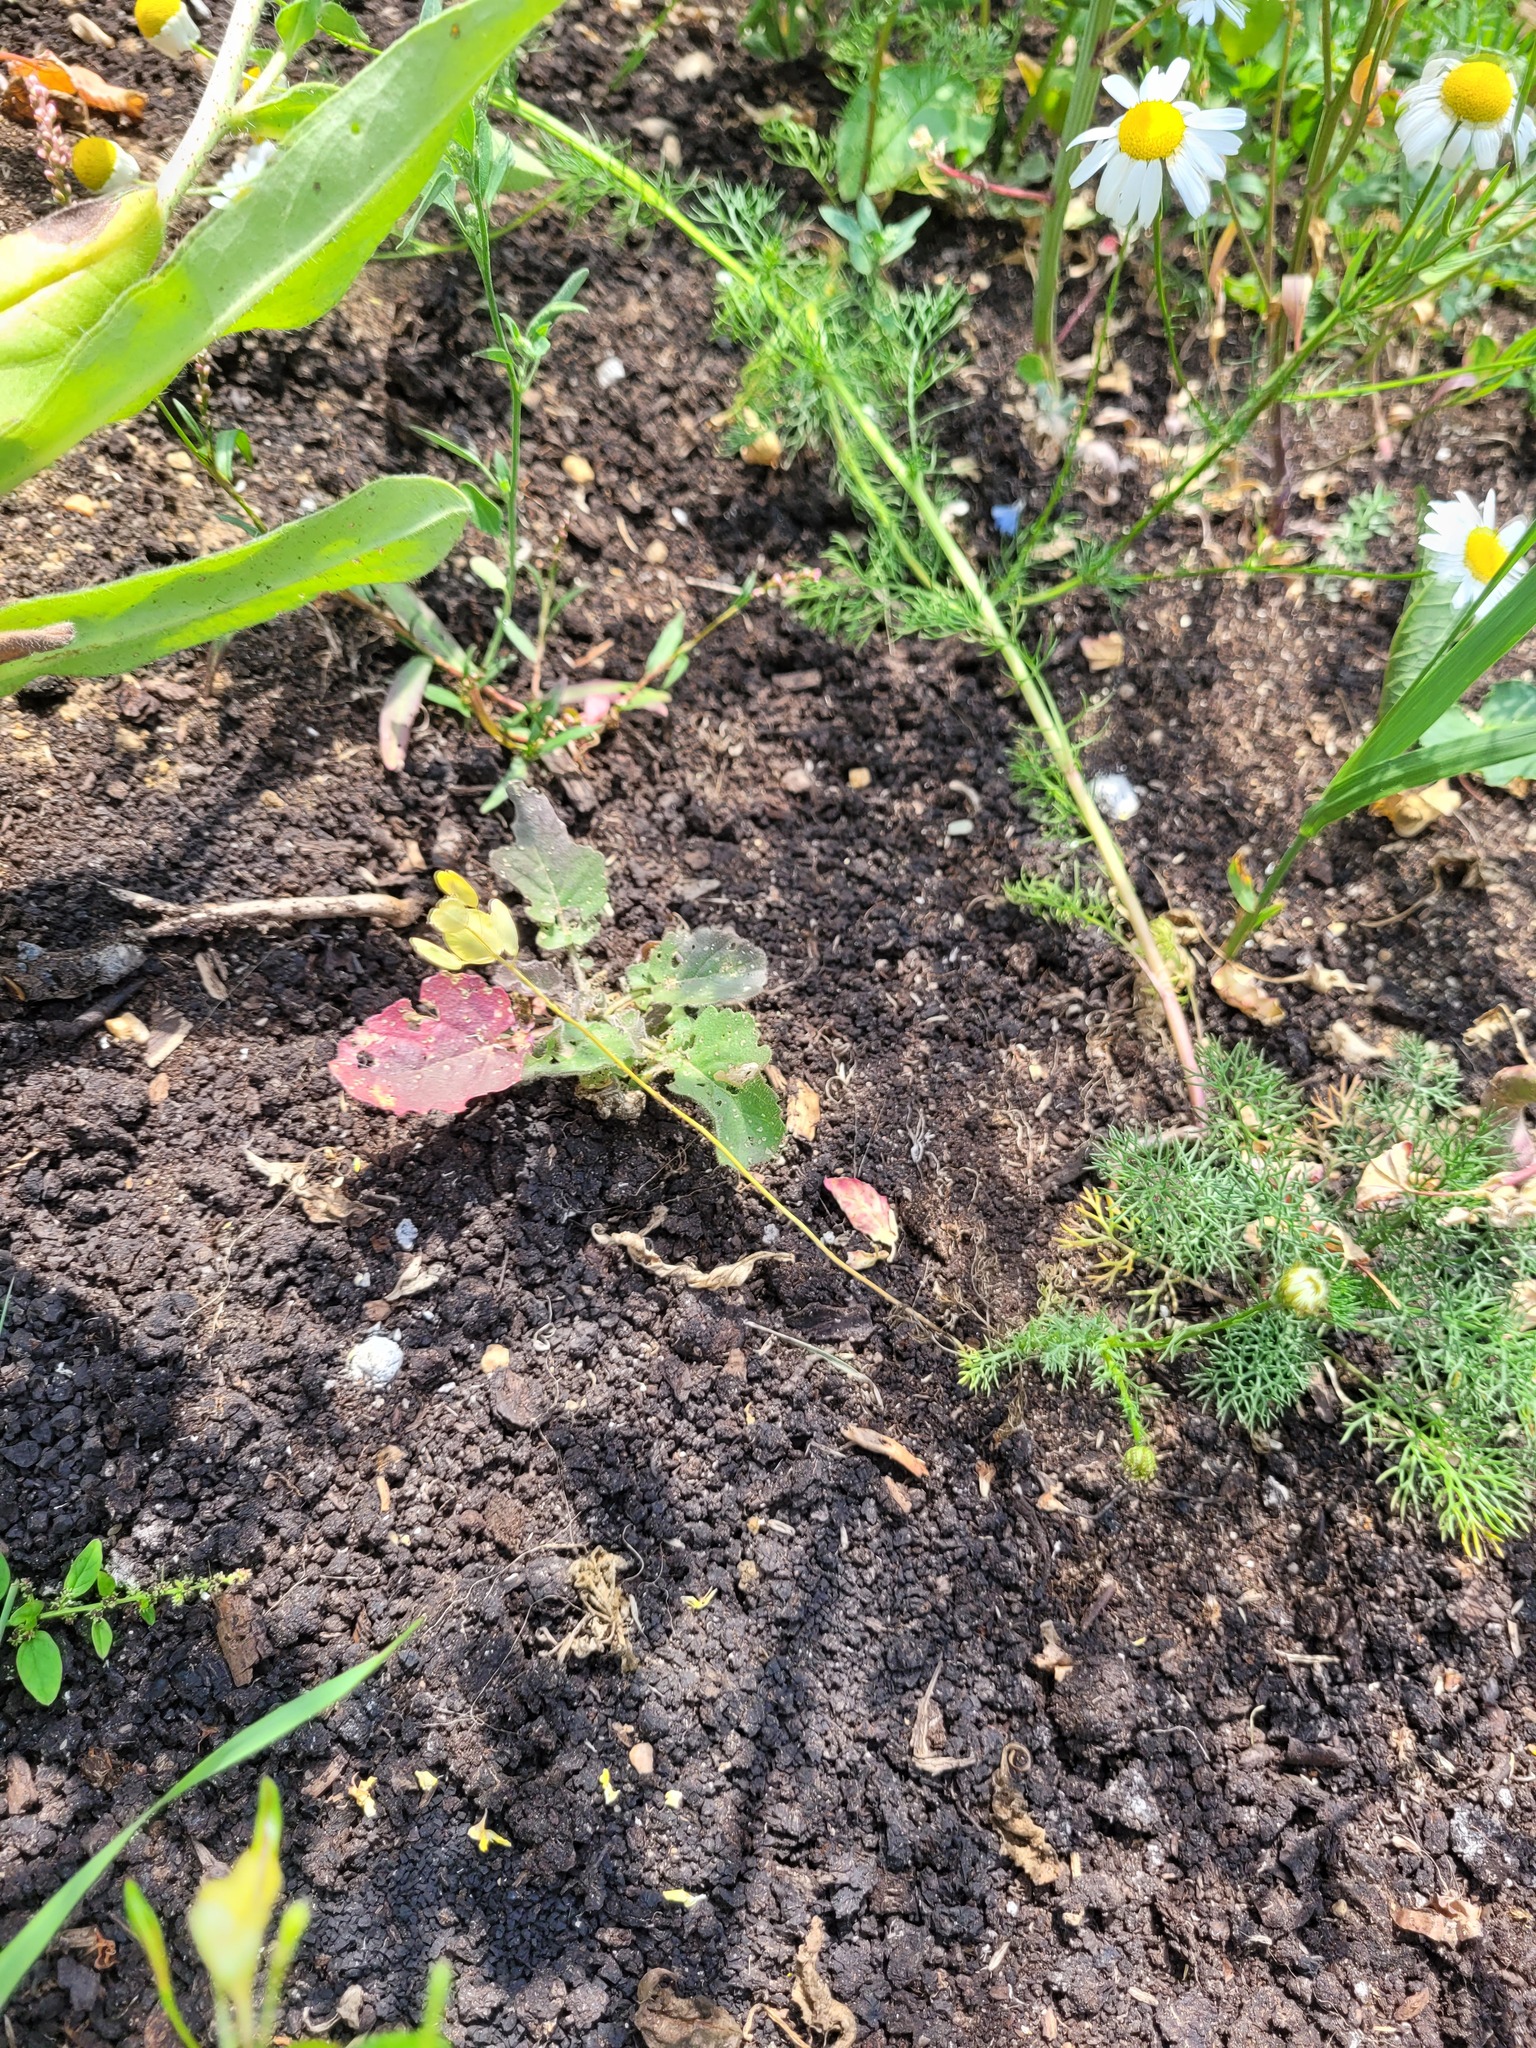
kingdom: Plantae
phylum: Tracheophyta
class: Magnoliopsida
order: Brassicales
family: Brassicaceae
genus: Thlaspi
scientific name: Thlaspi arvense
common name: Field pennycress
